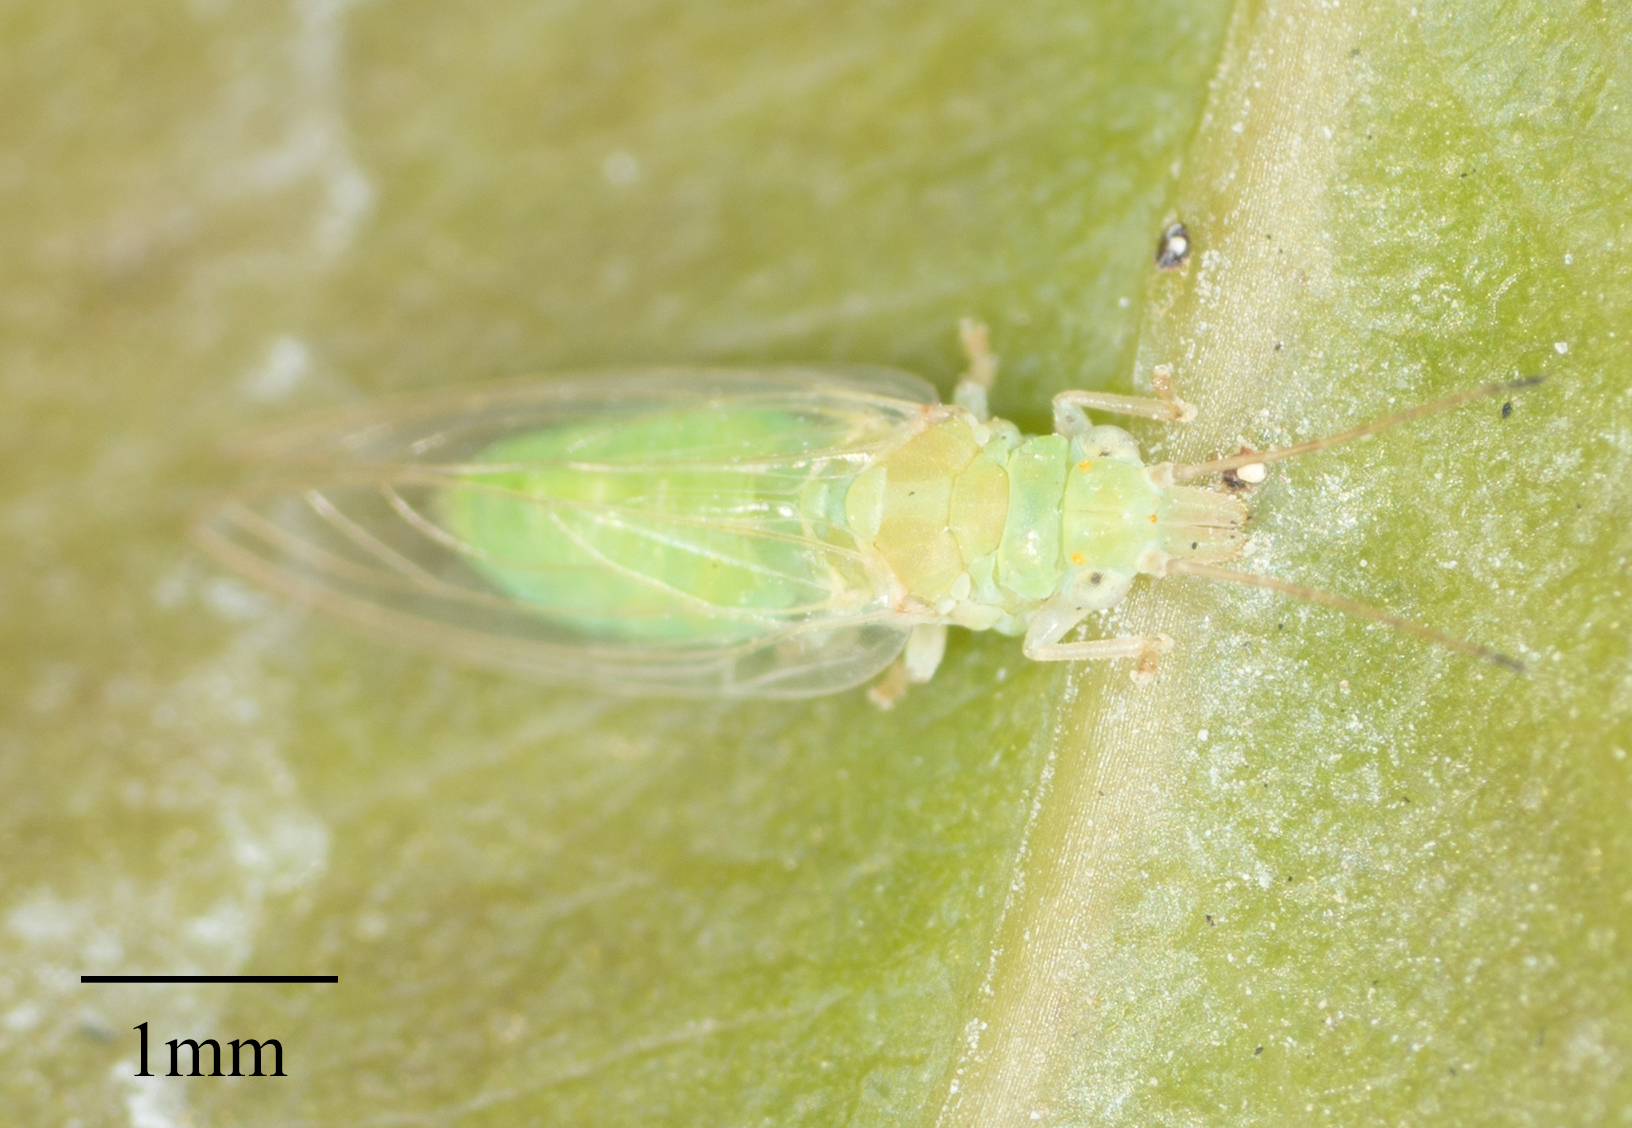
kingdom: Animalia
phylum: Arthropoda
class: Insecta
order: Hemiptera
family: Aphalaridae
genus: Glycaspis
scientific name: Glycaspis brimblecombei
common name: Red gum lerp psyllid
